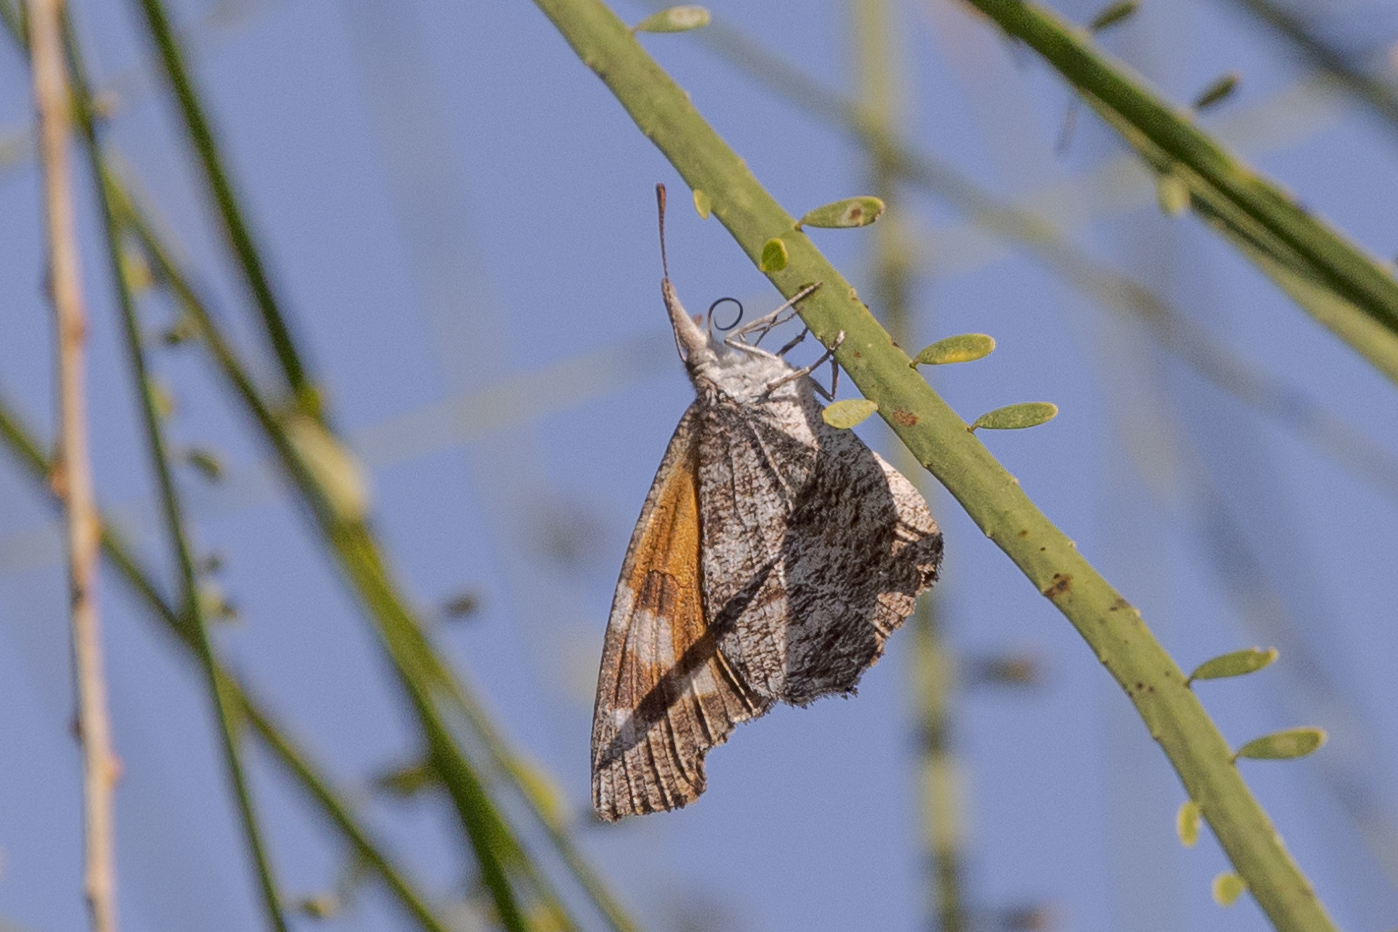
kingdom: Animalia
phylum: Arthropoda
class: Insecta
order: Lepidoptera
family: Nymphalidae
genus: Libytheana
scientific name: Libytheana carinenta
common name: American snout
